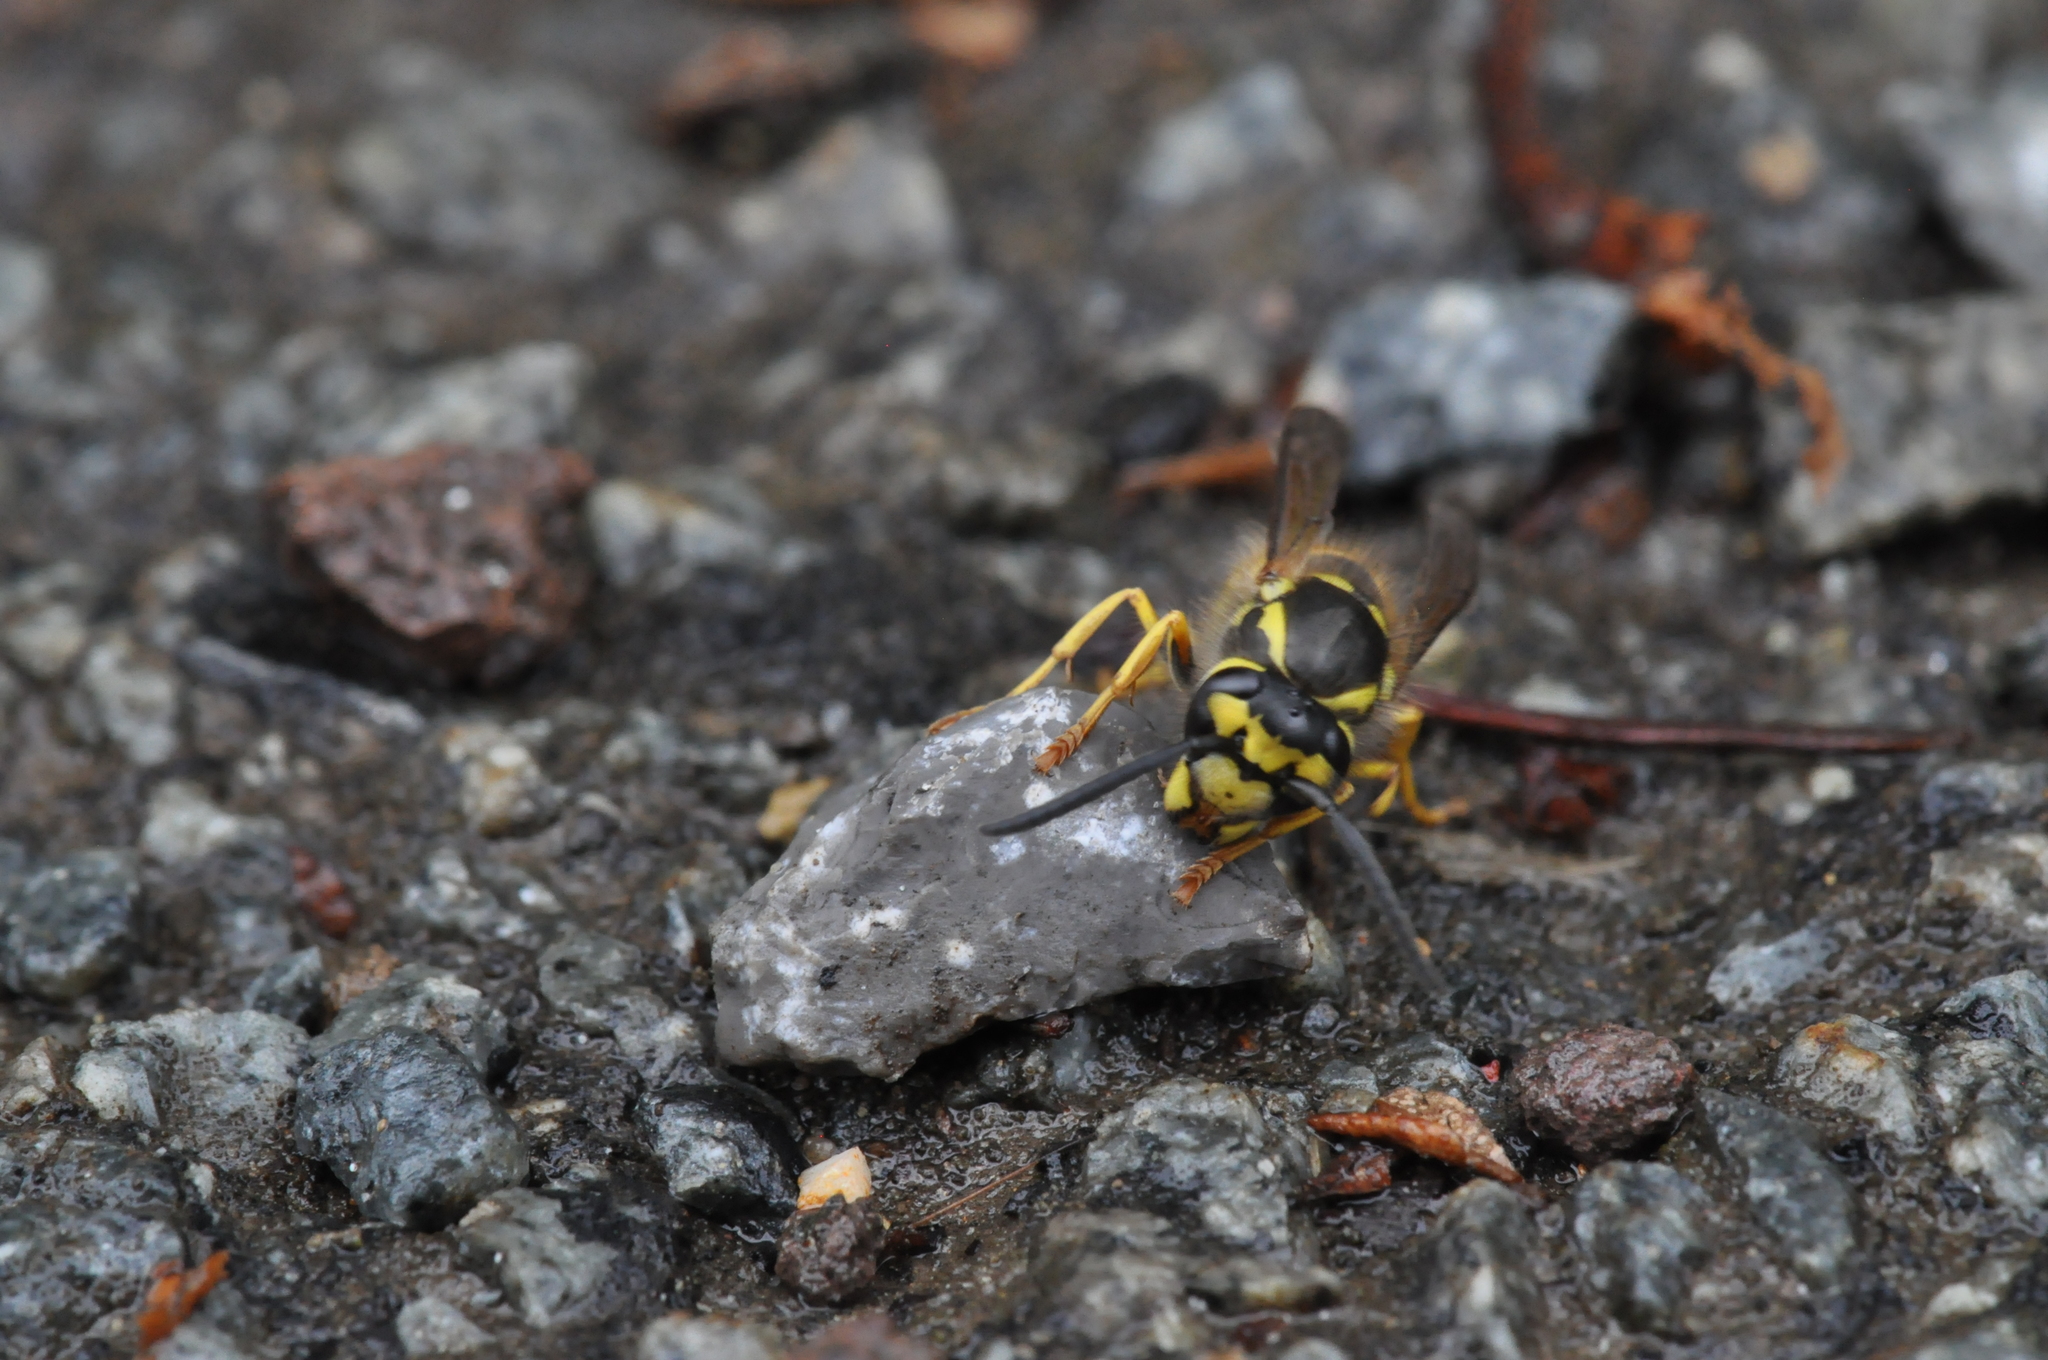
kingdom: Animalia
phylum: Arthropoda
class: Insecta
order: Hymenoptera
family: Vespidae
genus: Vespula
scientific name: Vespula germanica
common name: German wasp
